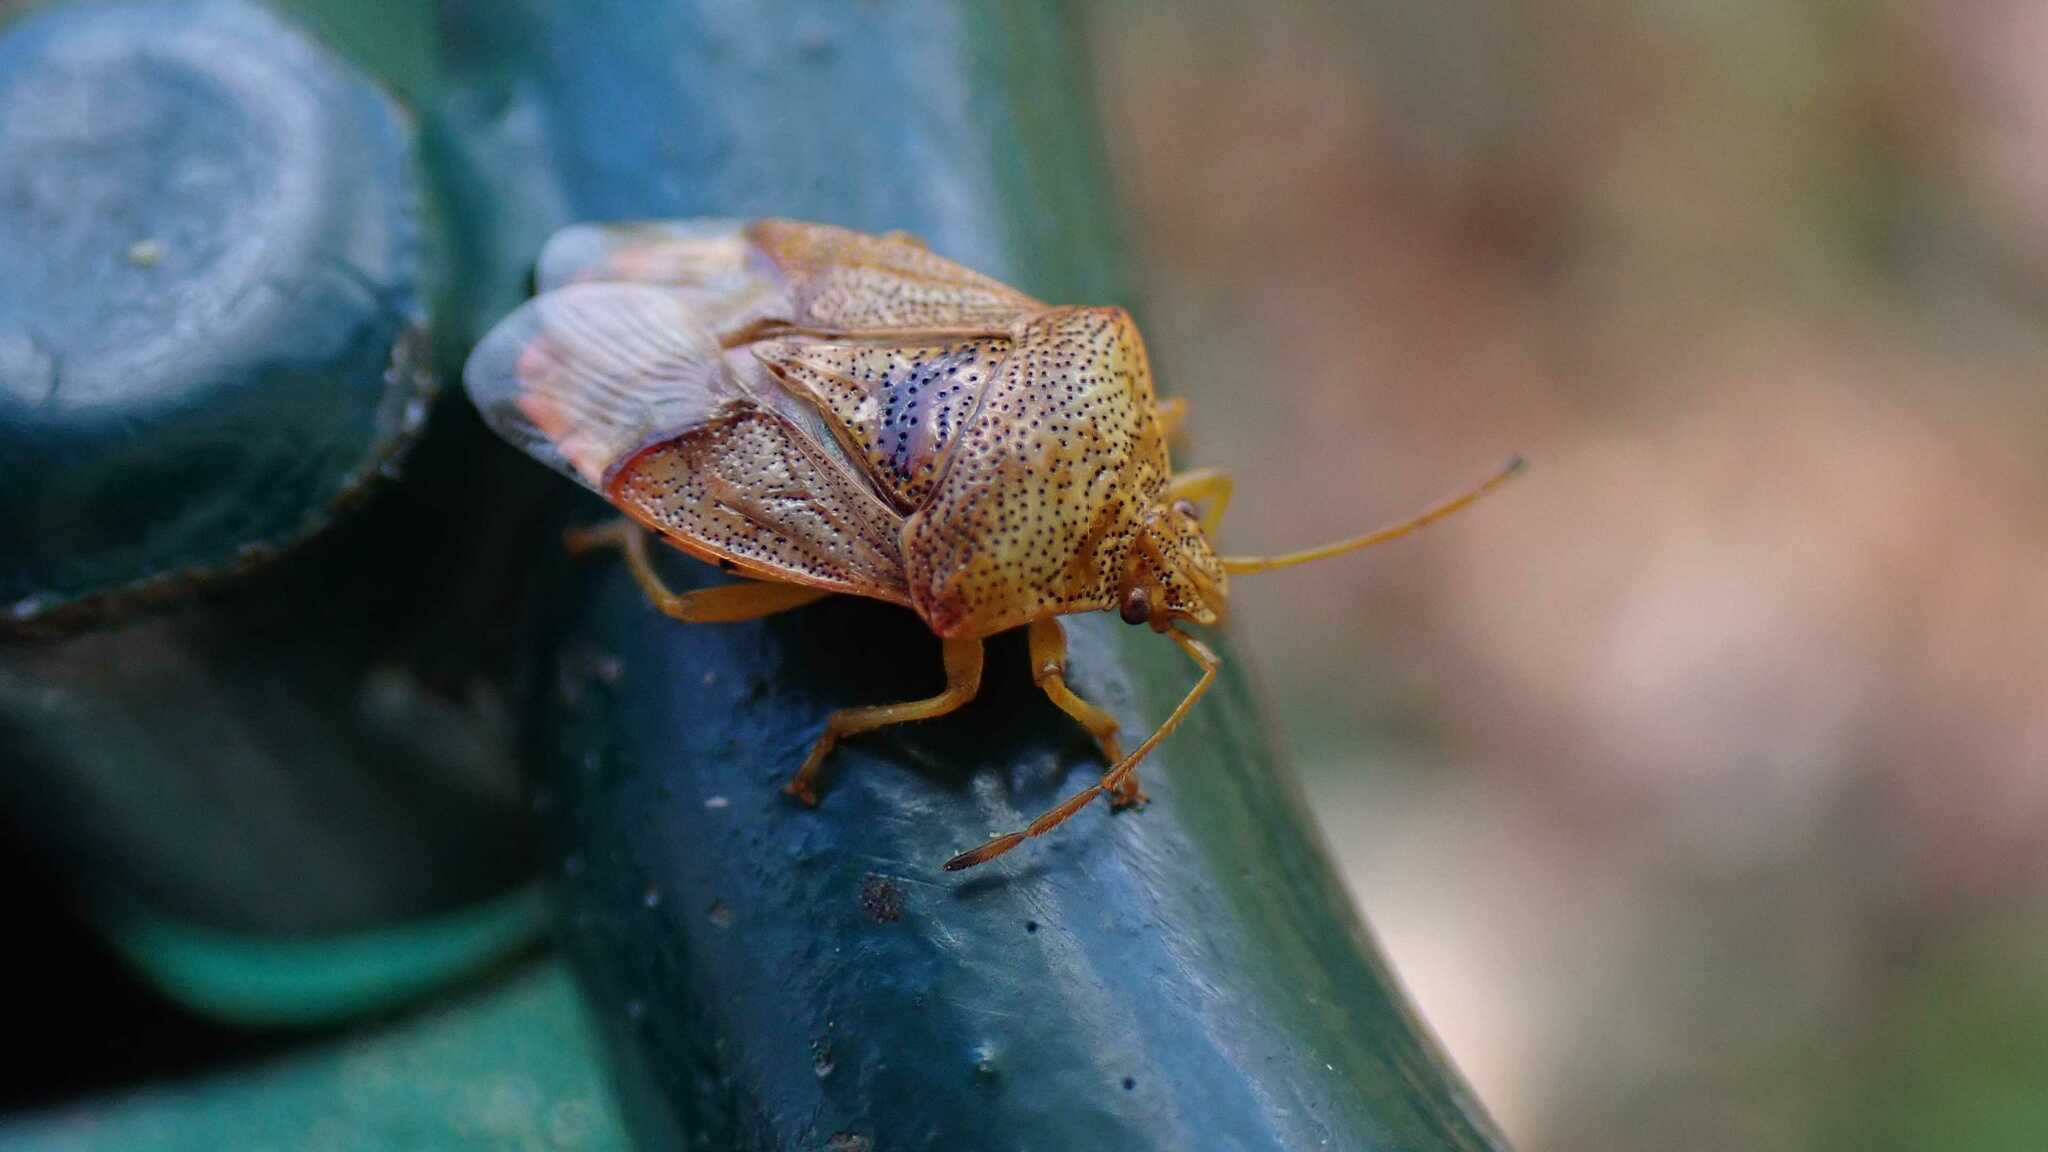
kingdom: Animalia
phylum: Arthropoda
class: Insecta
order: Hemiptera
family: Acanthosomatidae
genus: Elasmucha
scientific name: Elasmucha grisea
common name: Parent bug
